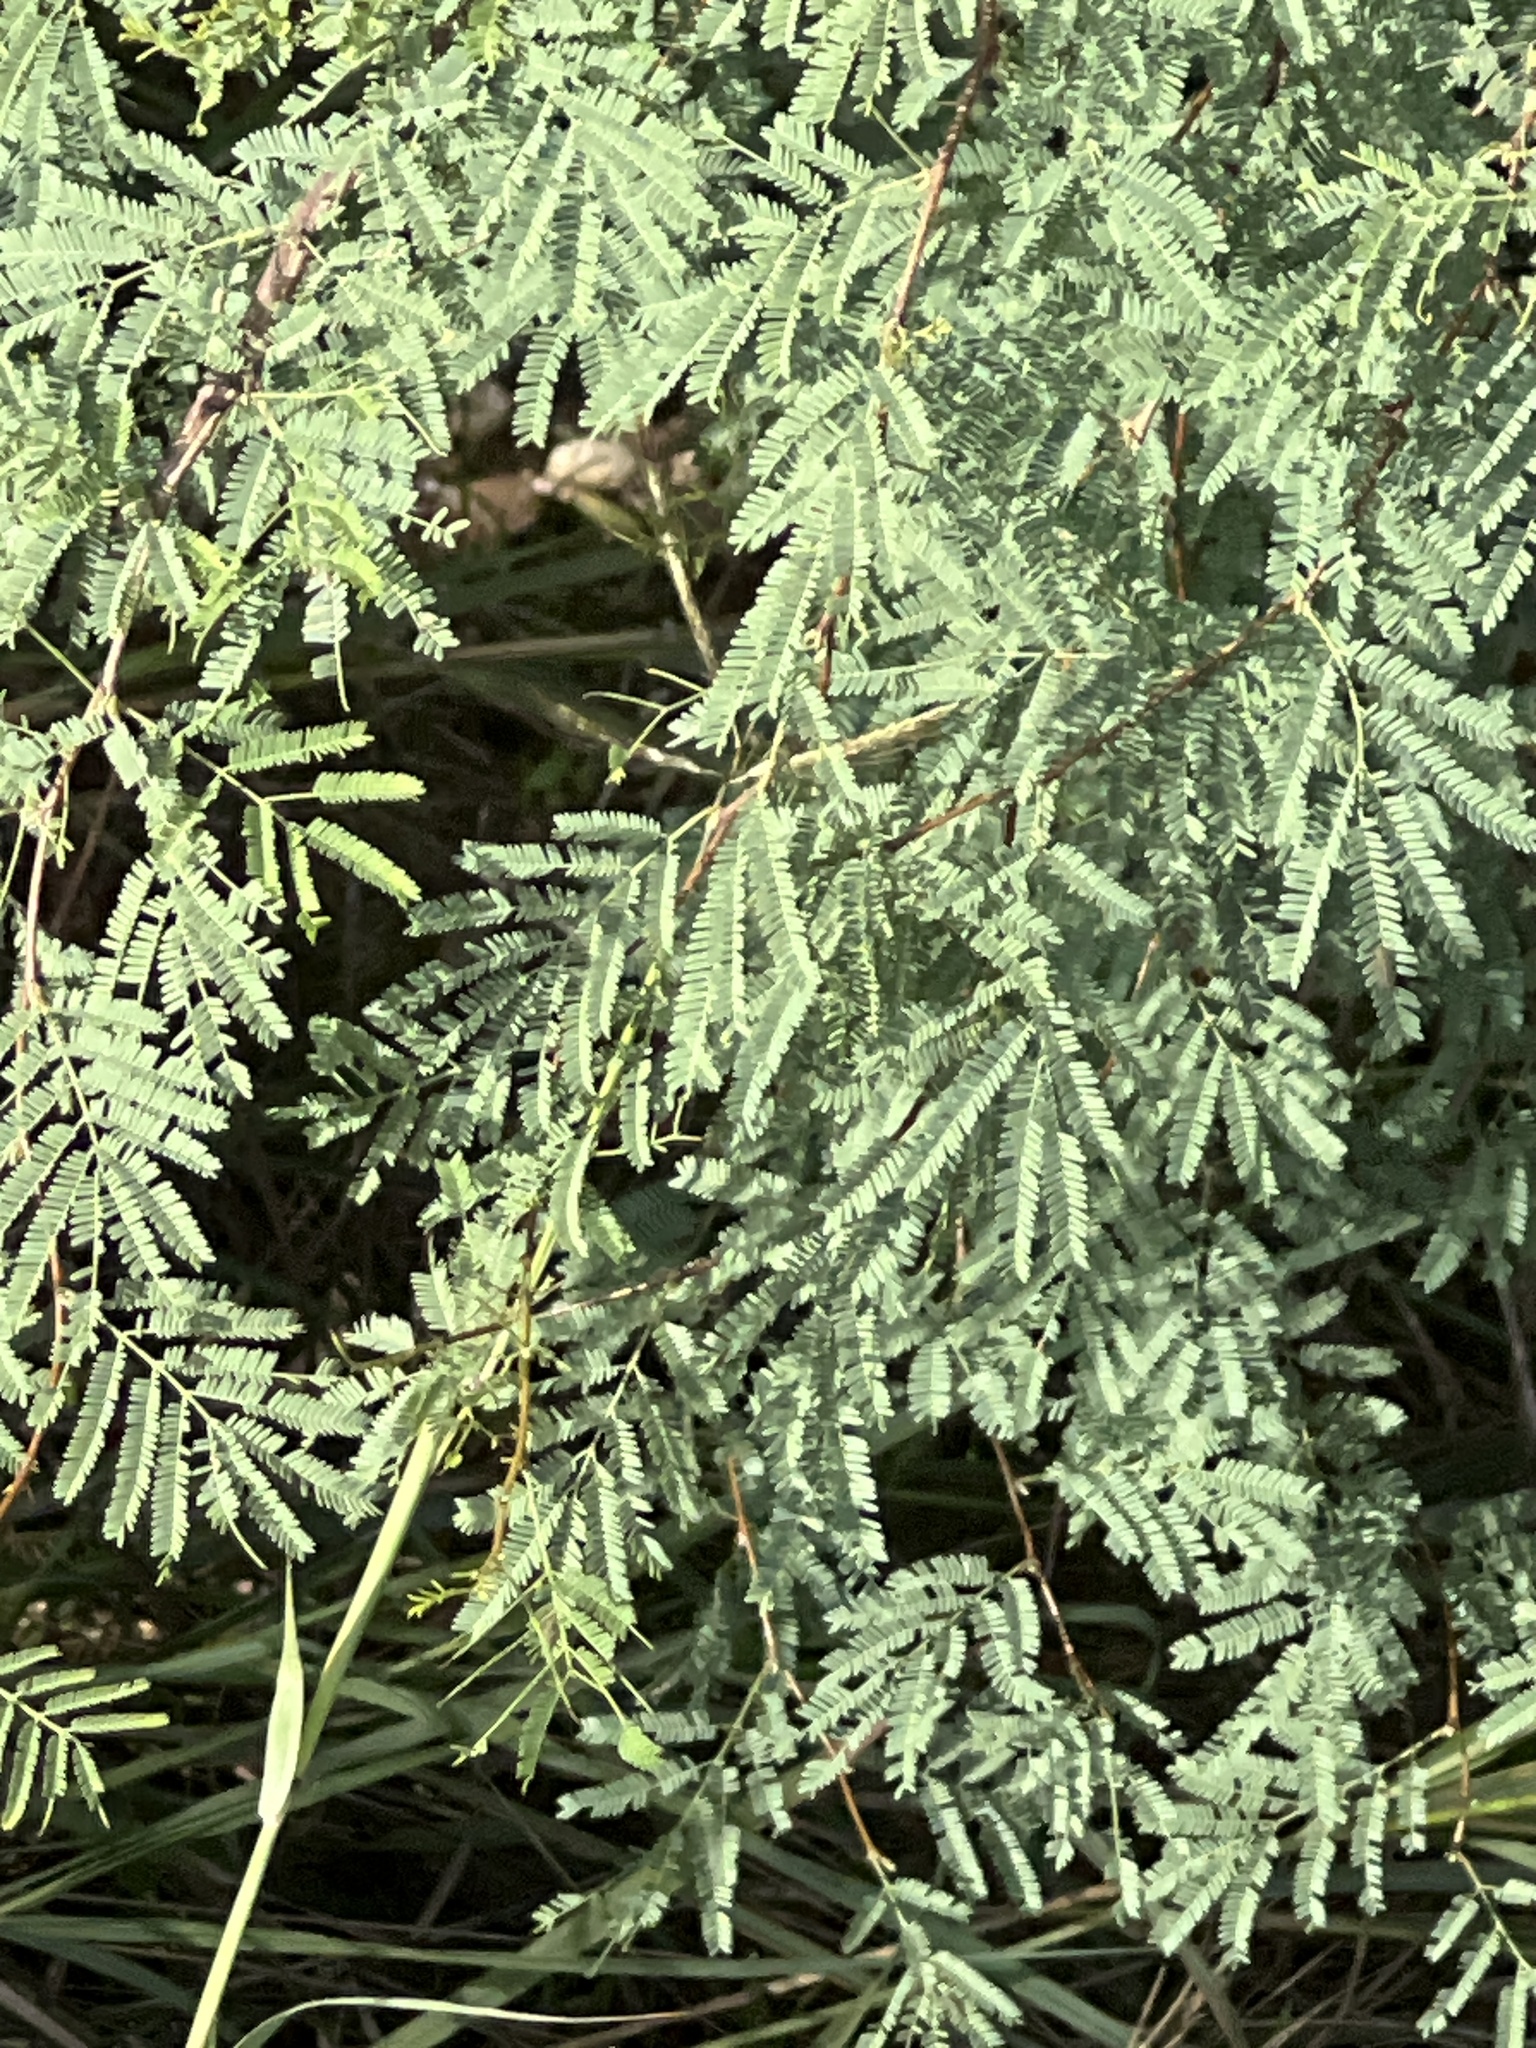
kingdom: Plantae
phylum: Tracheophyta
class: Magnoliopsida
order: Fabales
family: Fabaceae
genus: Vachellia
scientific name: Vachellia farnesiana
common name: Sweet acacia
